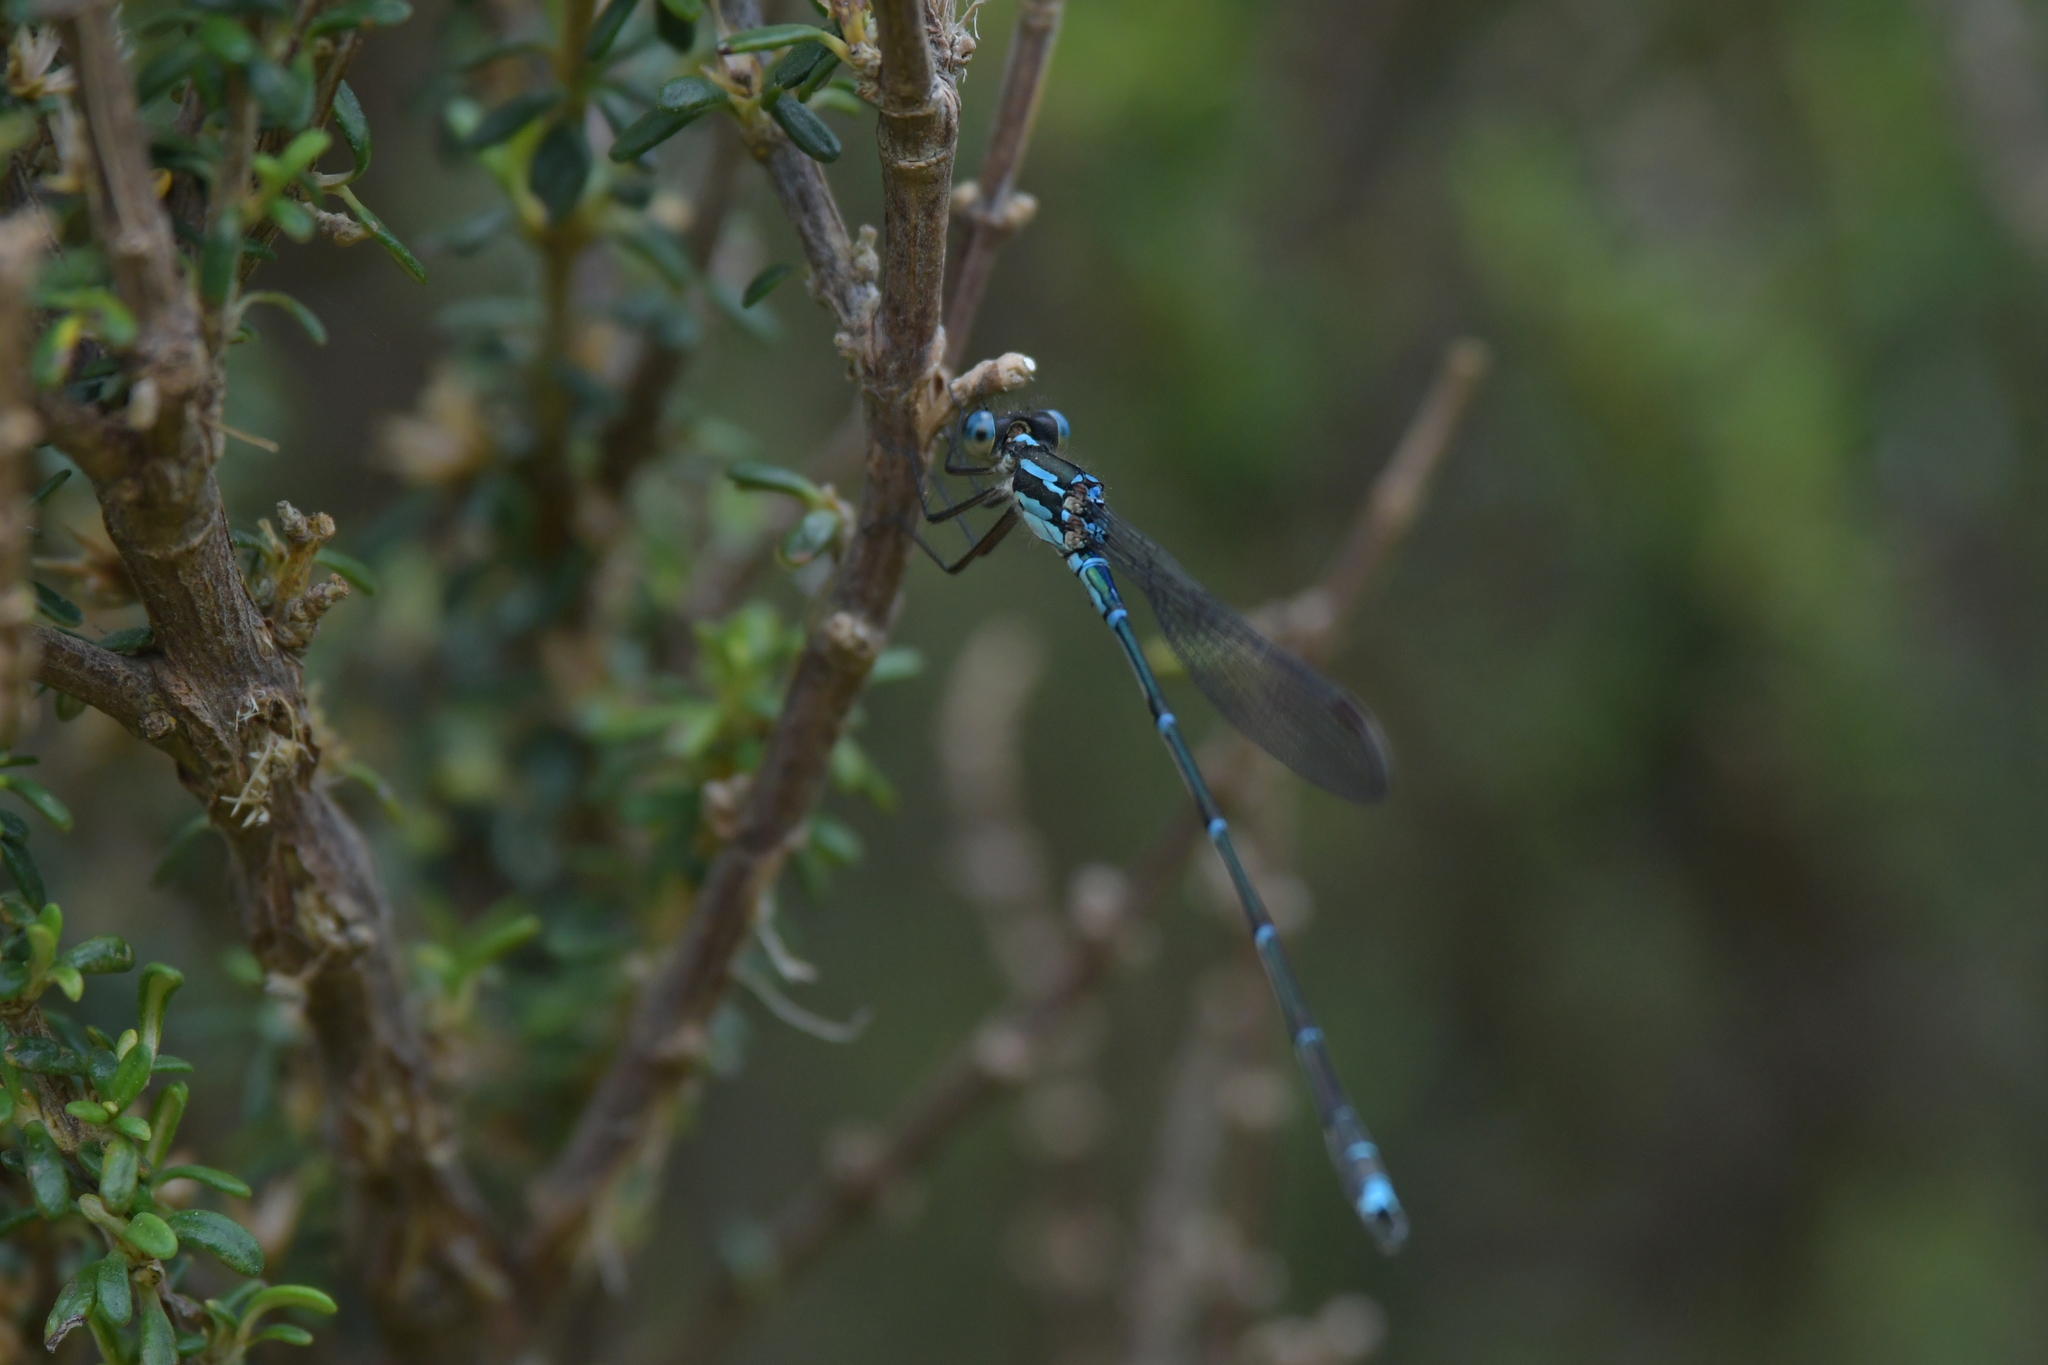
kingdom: Animalia
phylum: Arthropoda
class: Insecta
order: Odonata
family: Lestidae
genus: Austrolestes
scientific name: Austrolestes colensonis
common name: Blue damselfly
